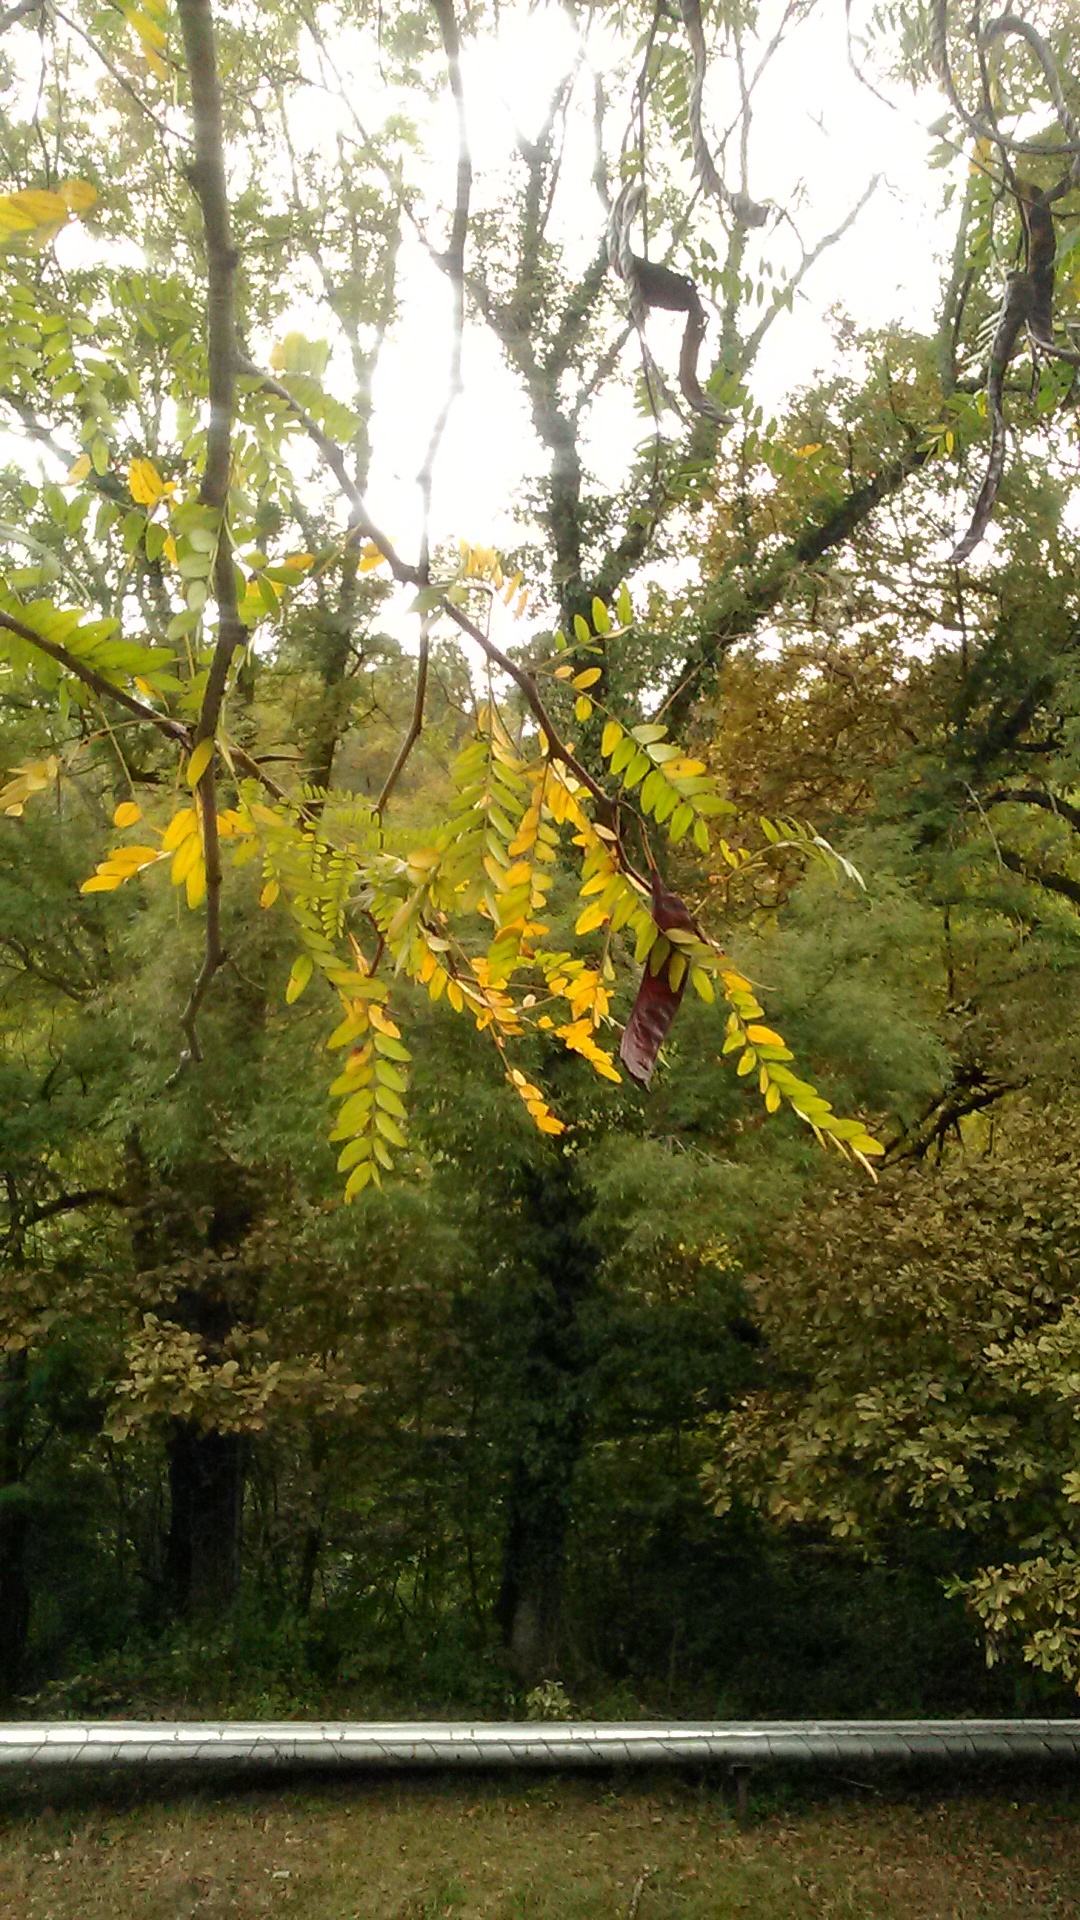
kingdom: Plantae
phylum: Tracheophyta
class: Magnoliopsida
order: Fabales
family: Fabaceae
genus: Gleditsia
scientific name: Gleditsia triacanthos
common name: Common honeylocust
